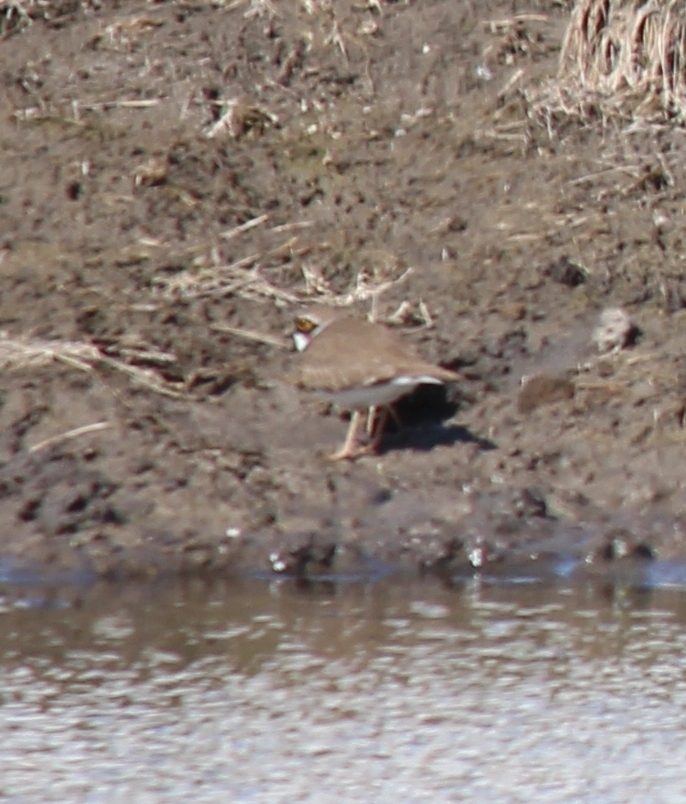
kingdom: Animalia
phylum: Chordata
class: Aves
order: Charadriiformes
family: Charadriidae
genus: Charadrius
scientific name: Charadrius dubius
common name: Little ringed plover
